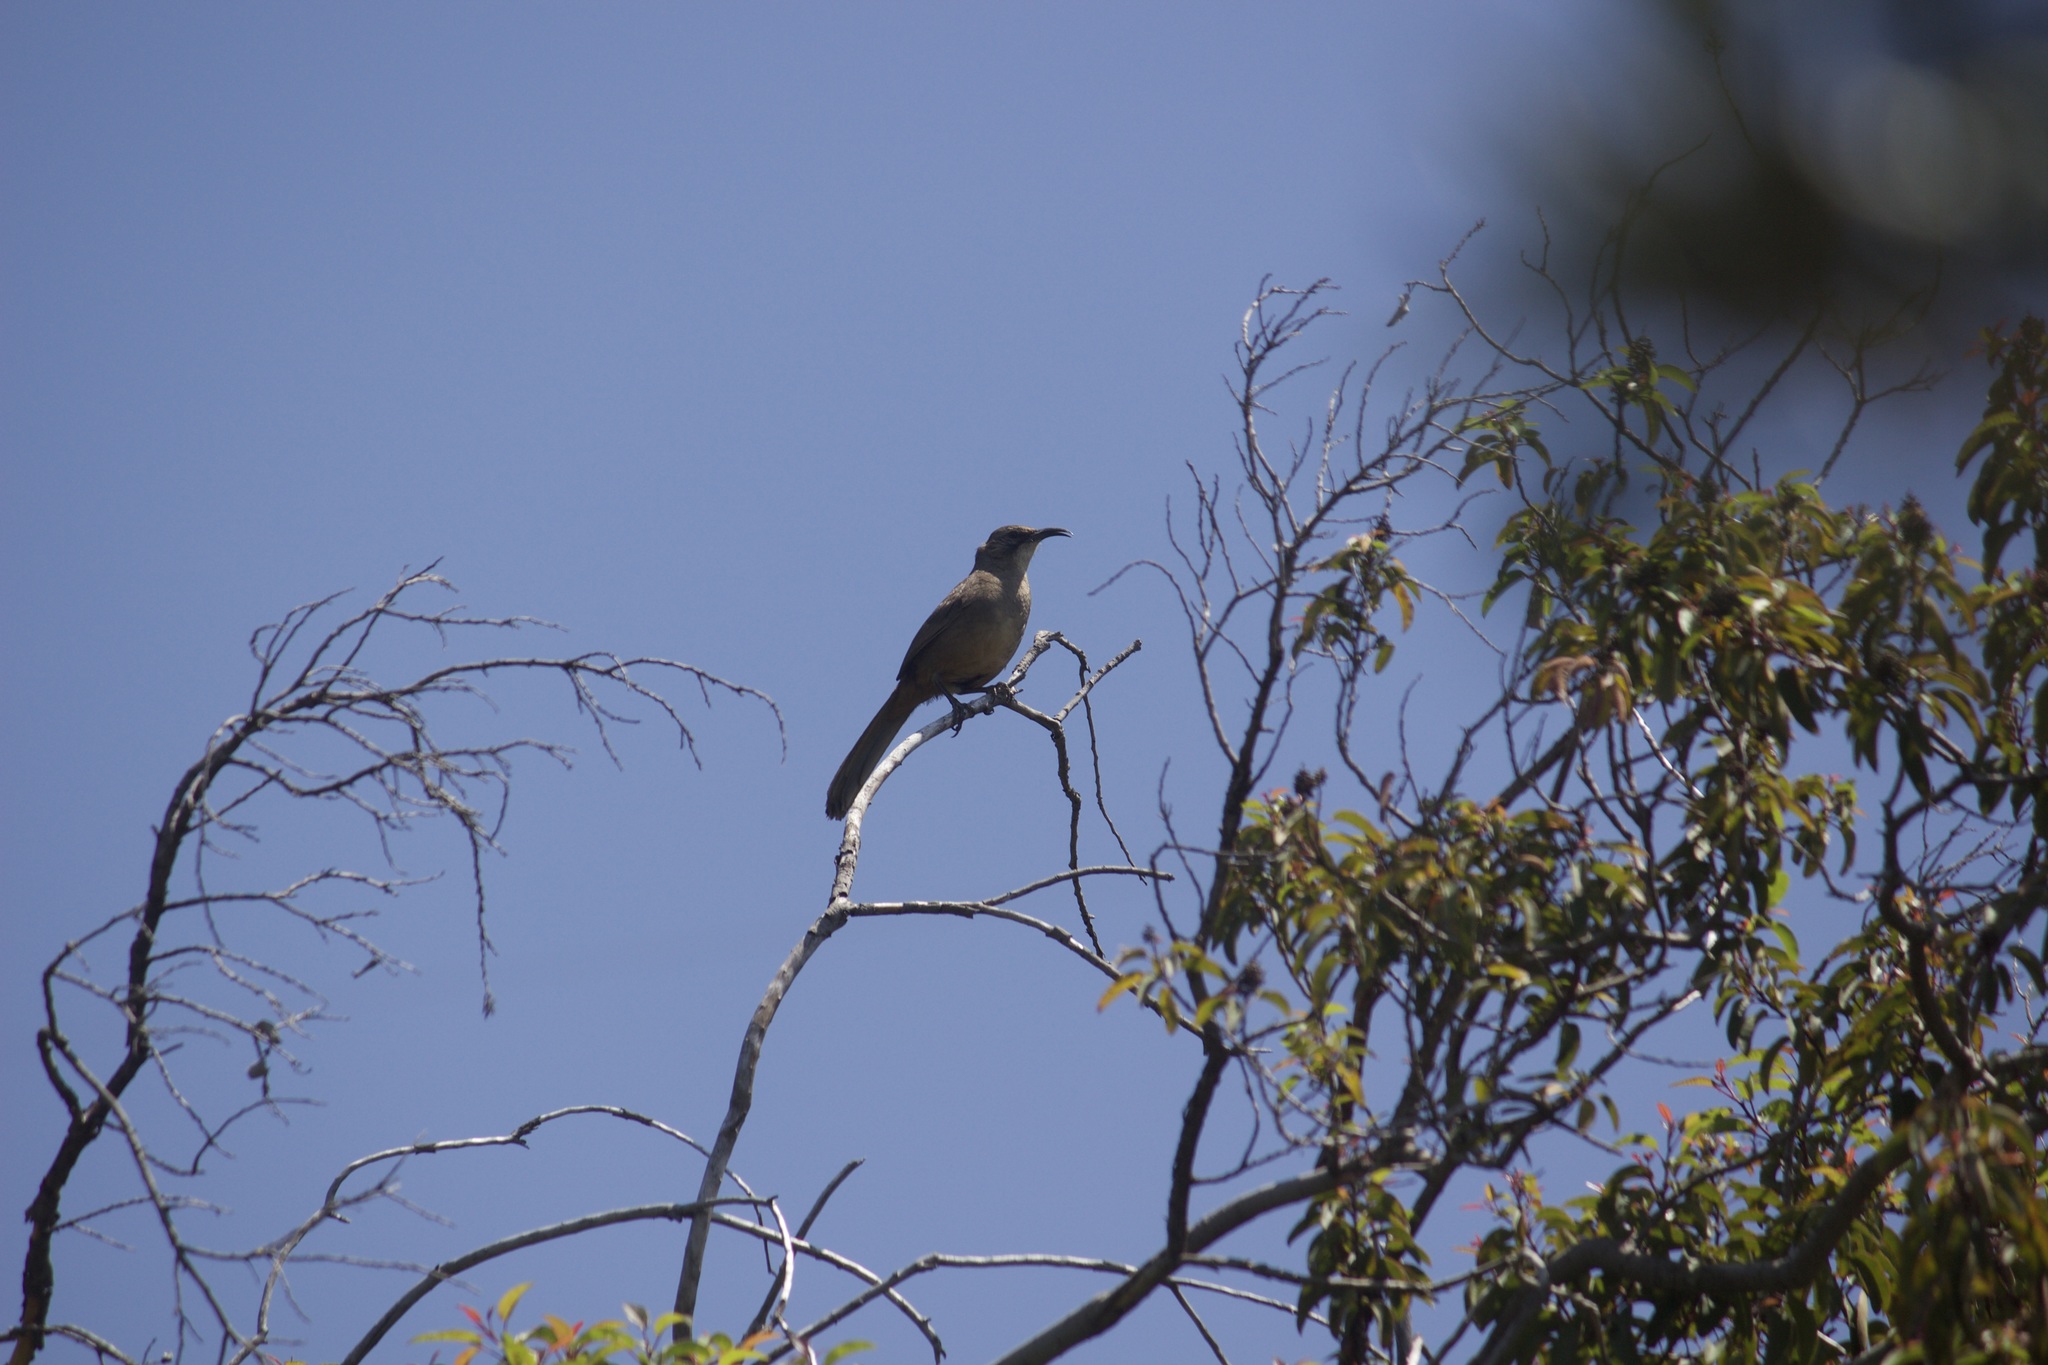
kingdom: Animalia
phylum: Chordata
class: Aves
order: Passeriformes
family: Mimidae
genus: Toxostoma
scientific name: Toxostoma redivivum
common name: California thrasher
